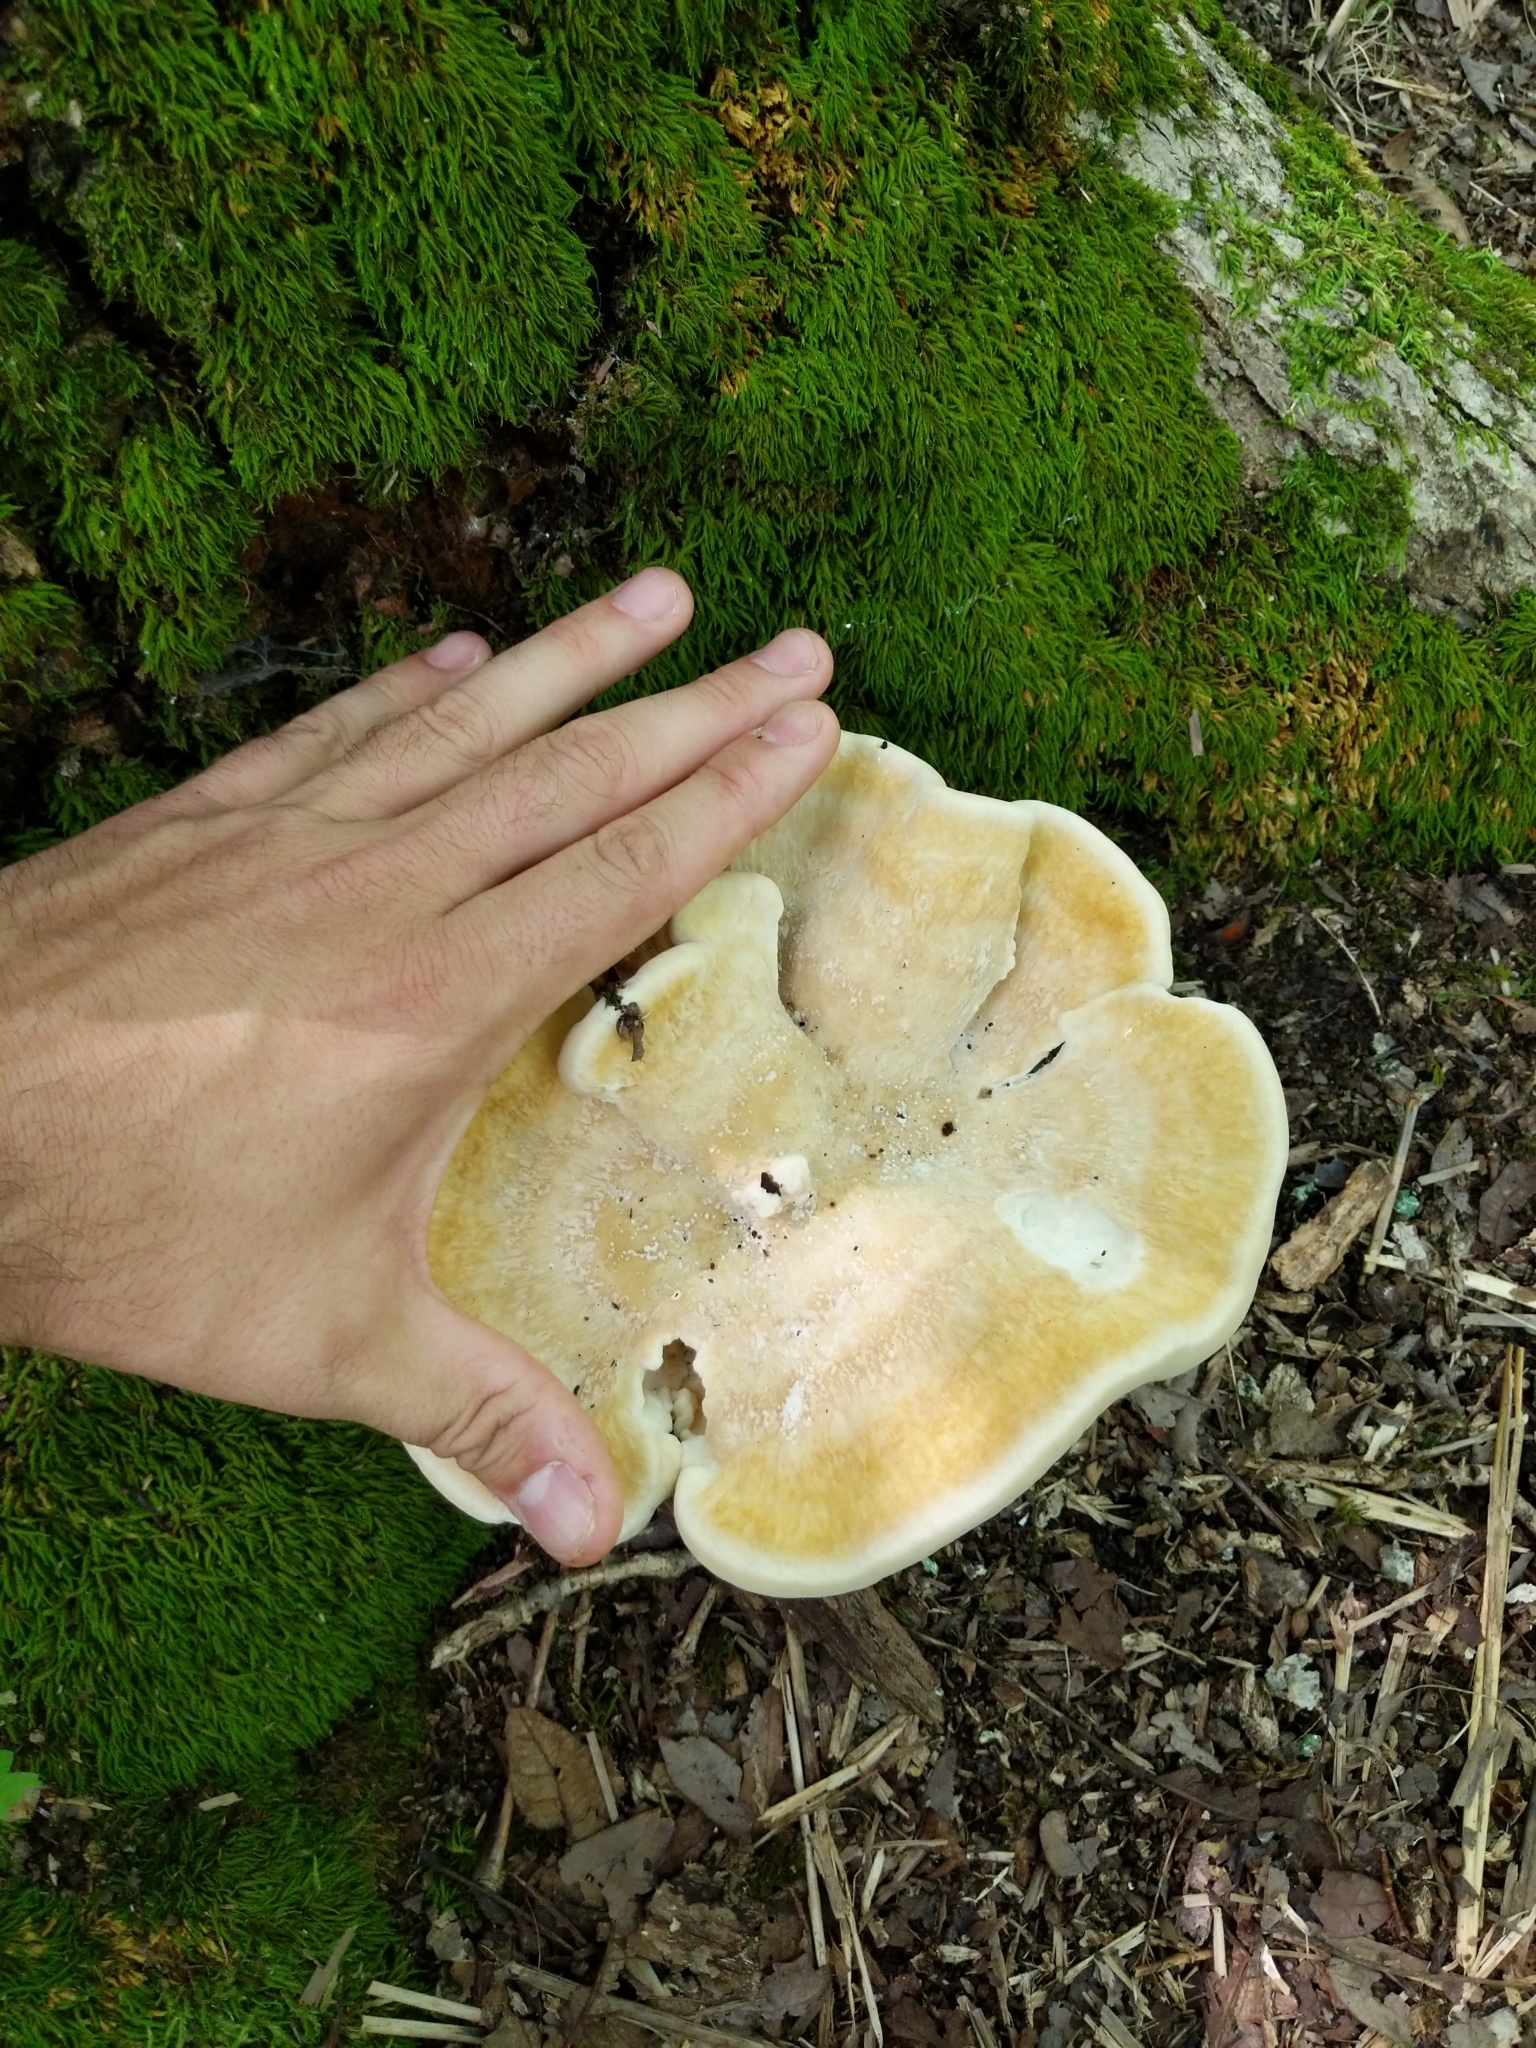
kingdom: Fungi
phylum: Basidiomycota
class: Agaricomycetes
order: Russulales
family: Bondarzewiaceae
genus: Bondarzewia
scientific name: Bondarzewia berkeleyi
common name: Berkeley's polypore
